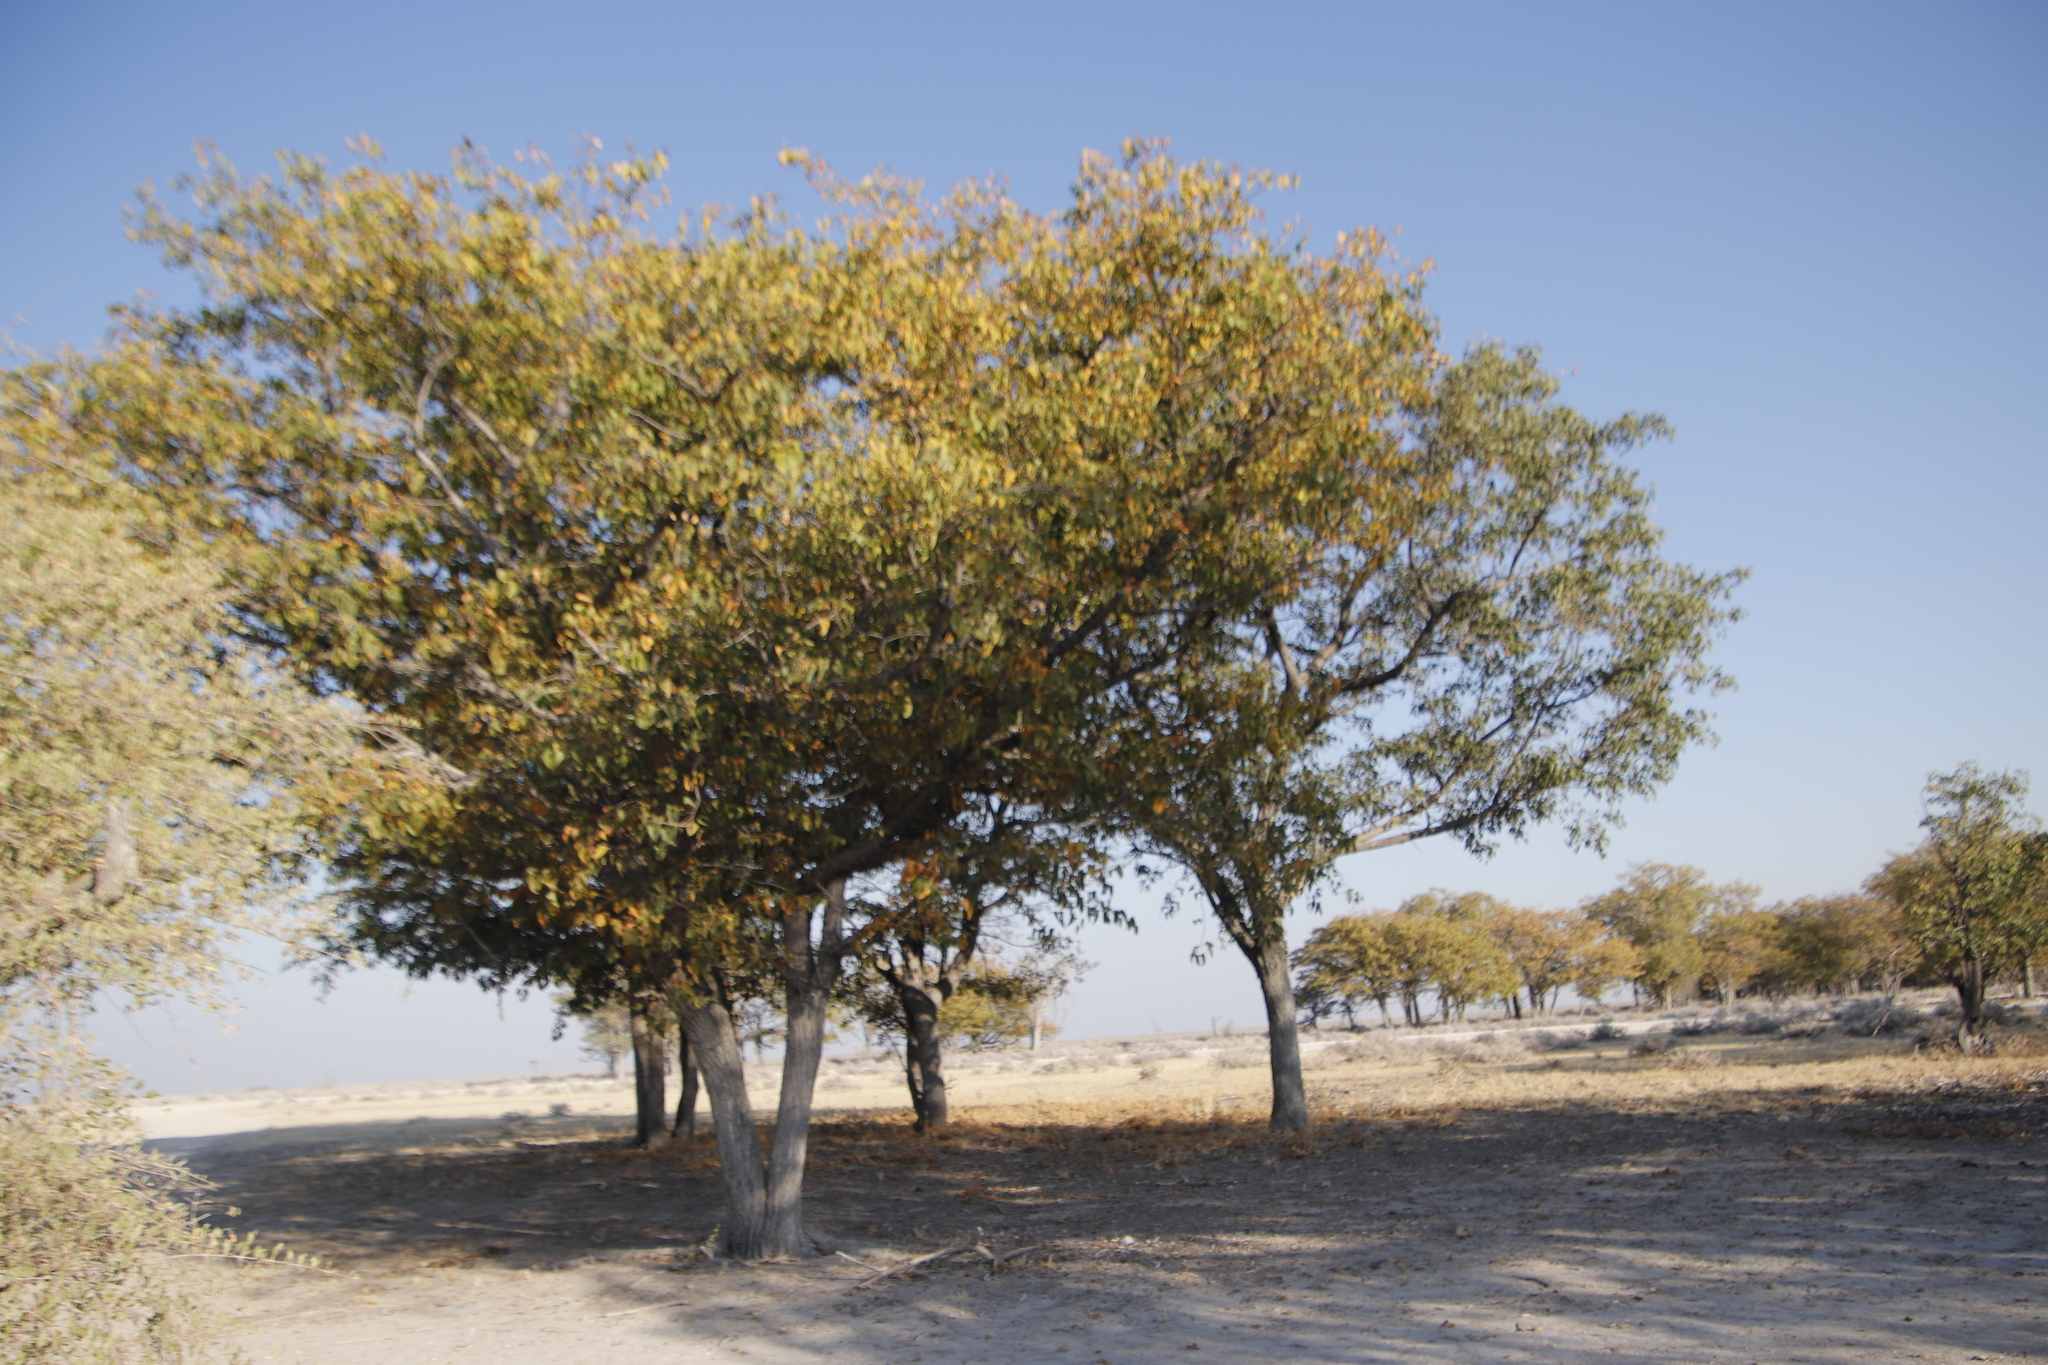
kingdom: Plantae
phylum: Tracheophyta
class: Magnoliopsida
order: Fabales
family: Fabaceae
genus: Colophospermum
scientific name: Colophospermum mopane
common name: Mopane
